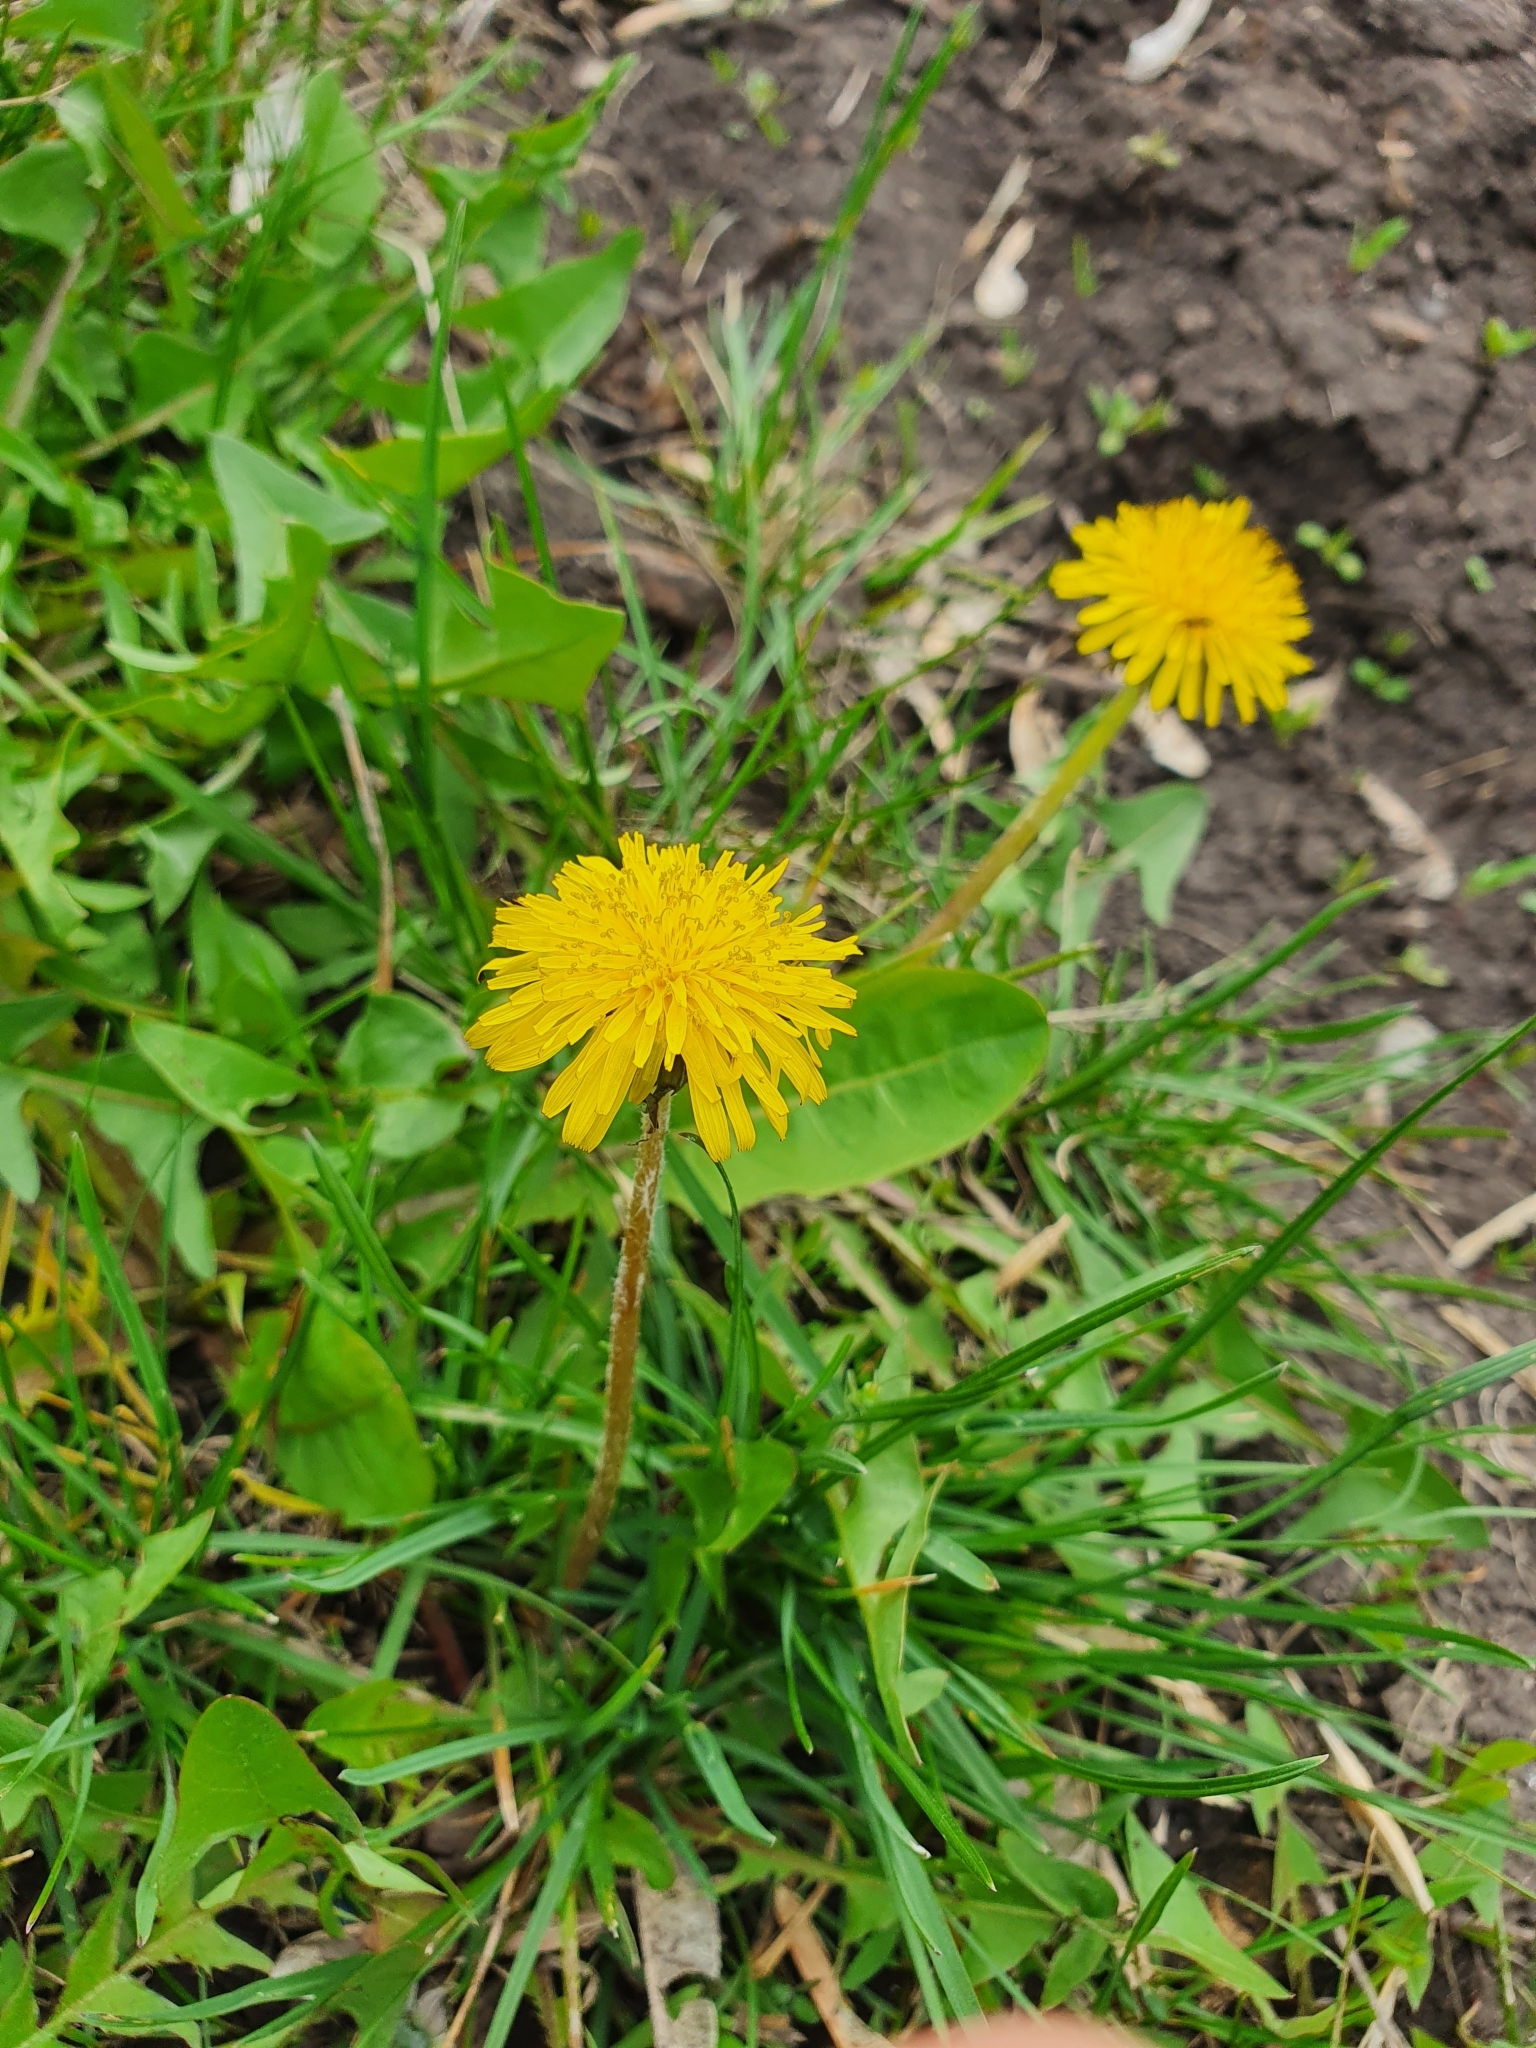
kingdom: Plantae
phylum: Tracheophyta
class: Magnoliopsida
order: Asterales
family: Asteraceae
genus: Taraxacum
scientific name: Taraxacum officinale
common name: Common dandelion
